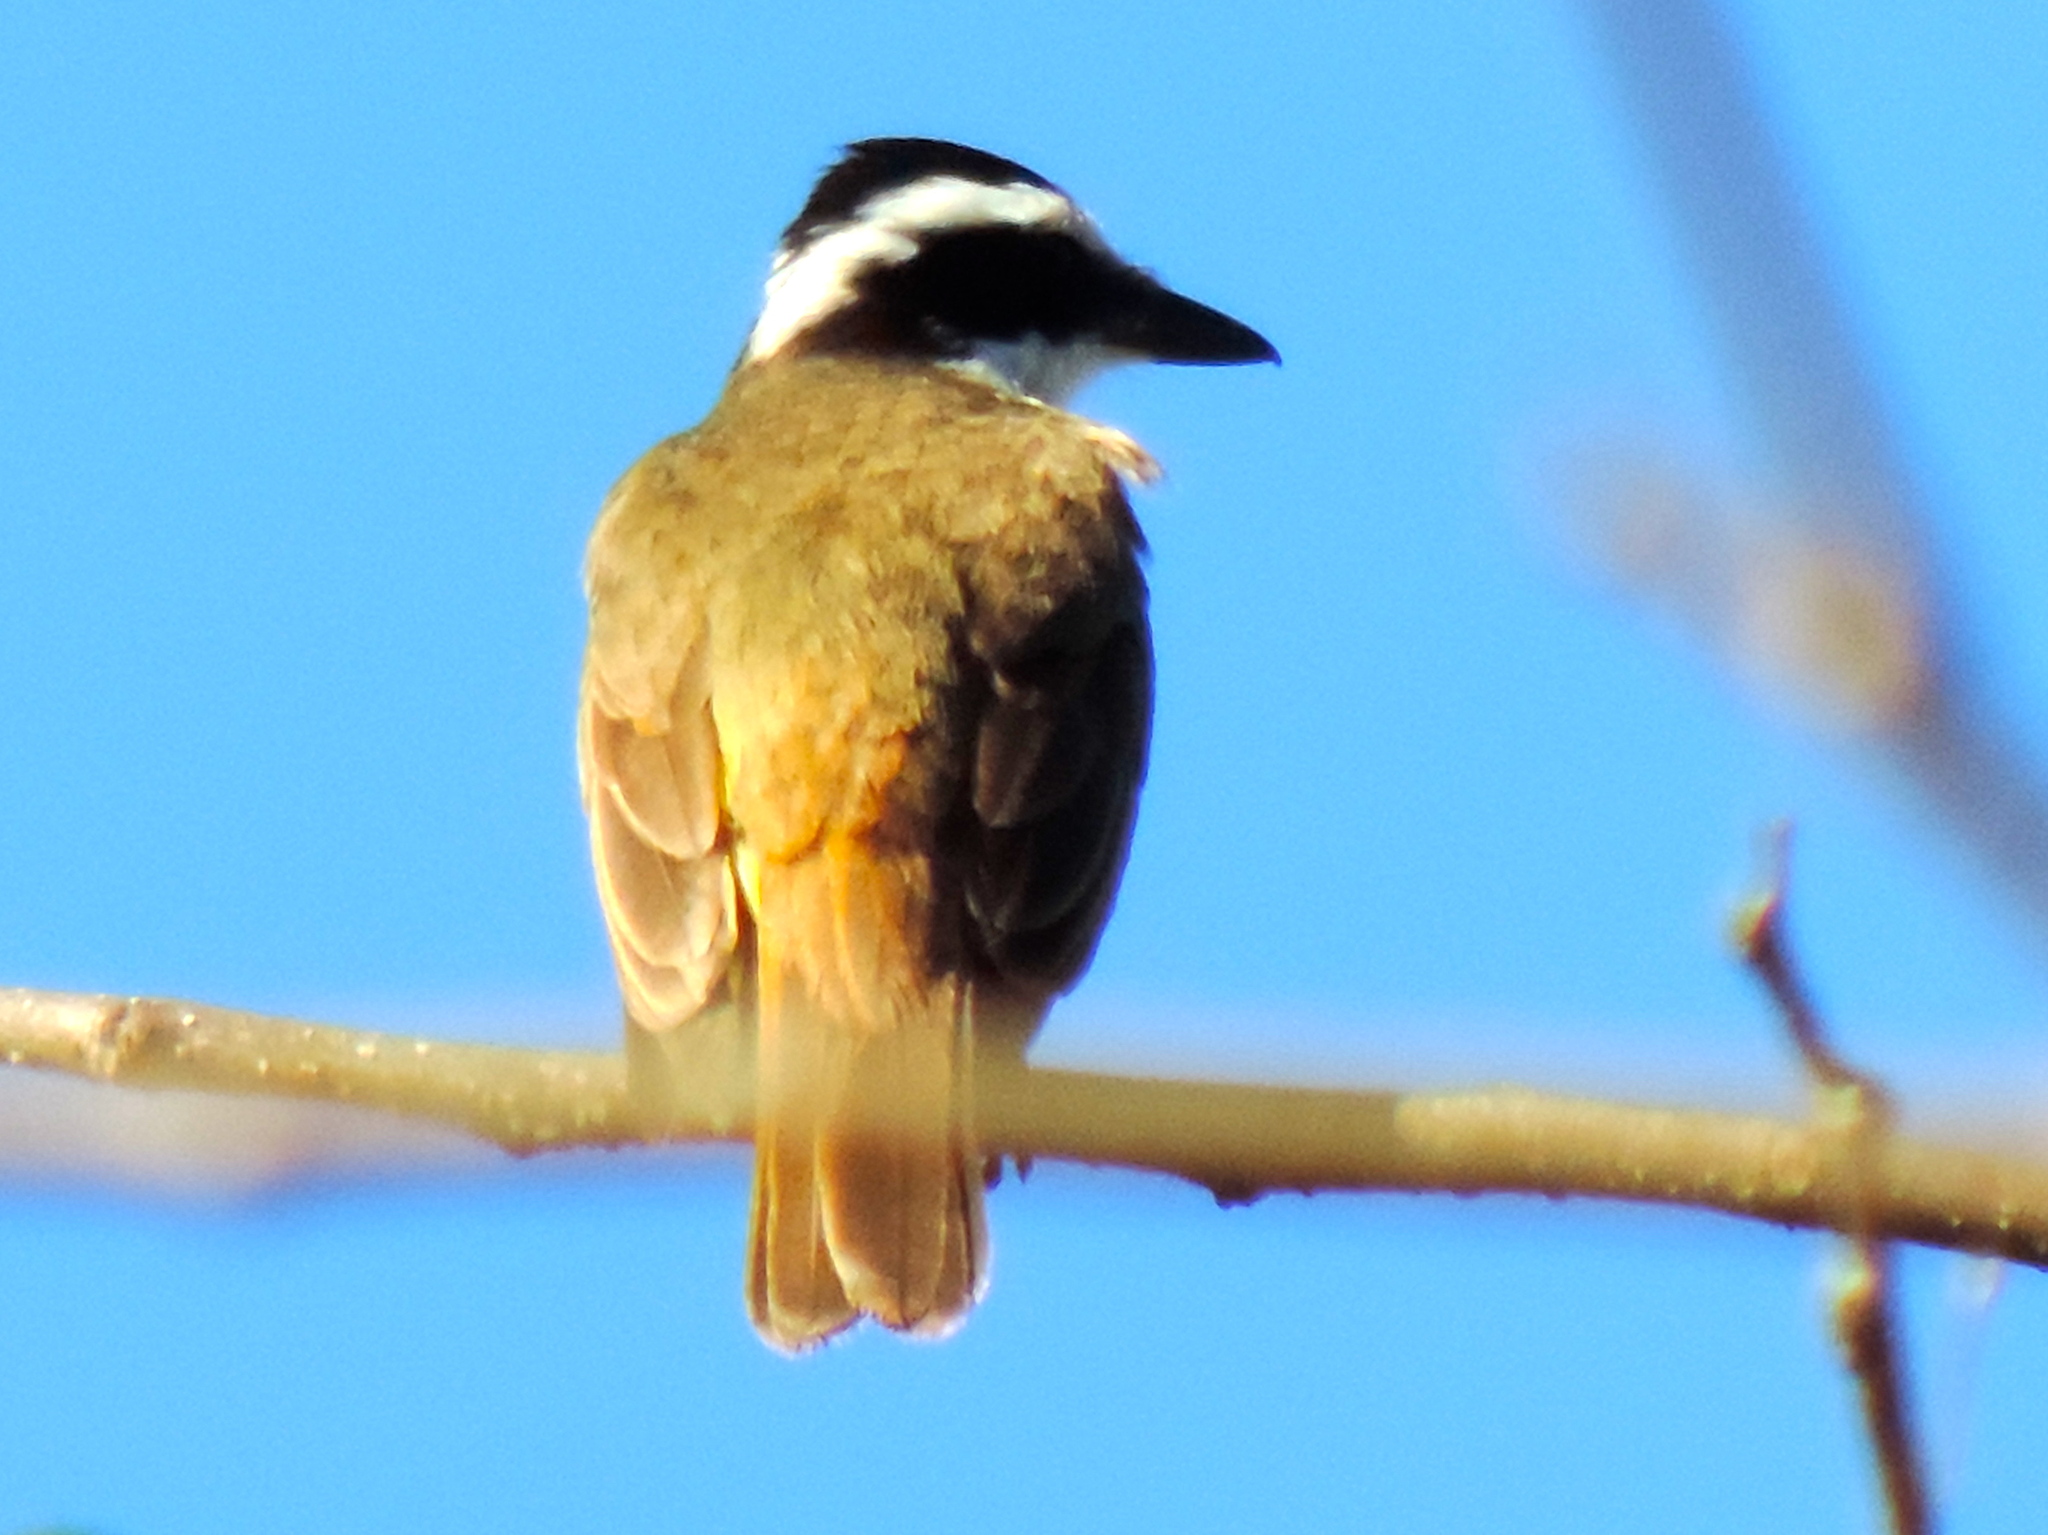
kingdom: Animalia
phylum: Chordata
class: Aves
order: Passeriformes
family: Tyrannidae
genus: Pitangus
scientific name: Pitangus sulphuratus
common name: Great kiskadee
